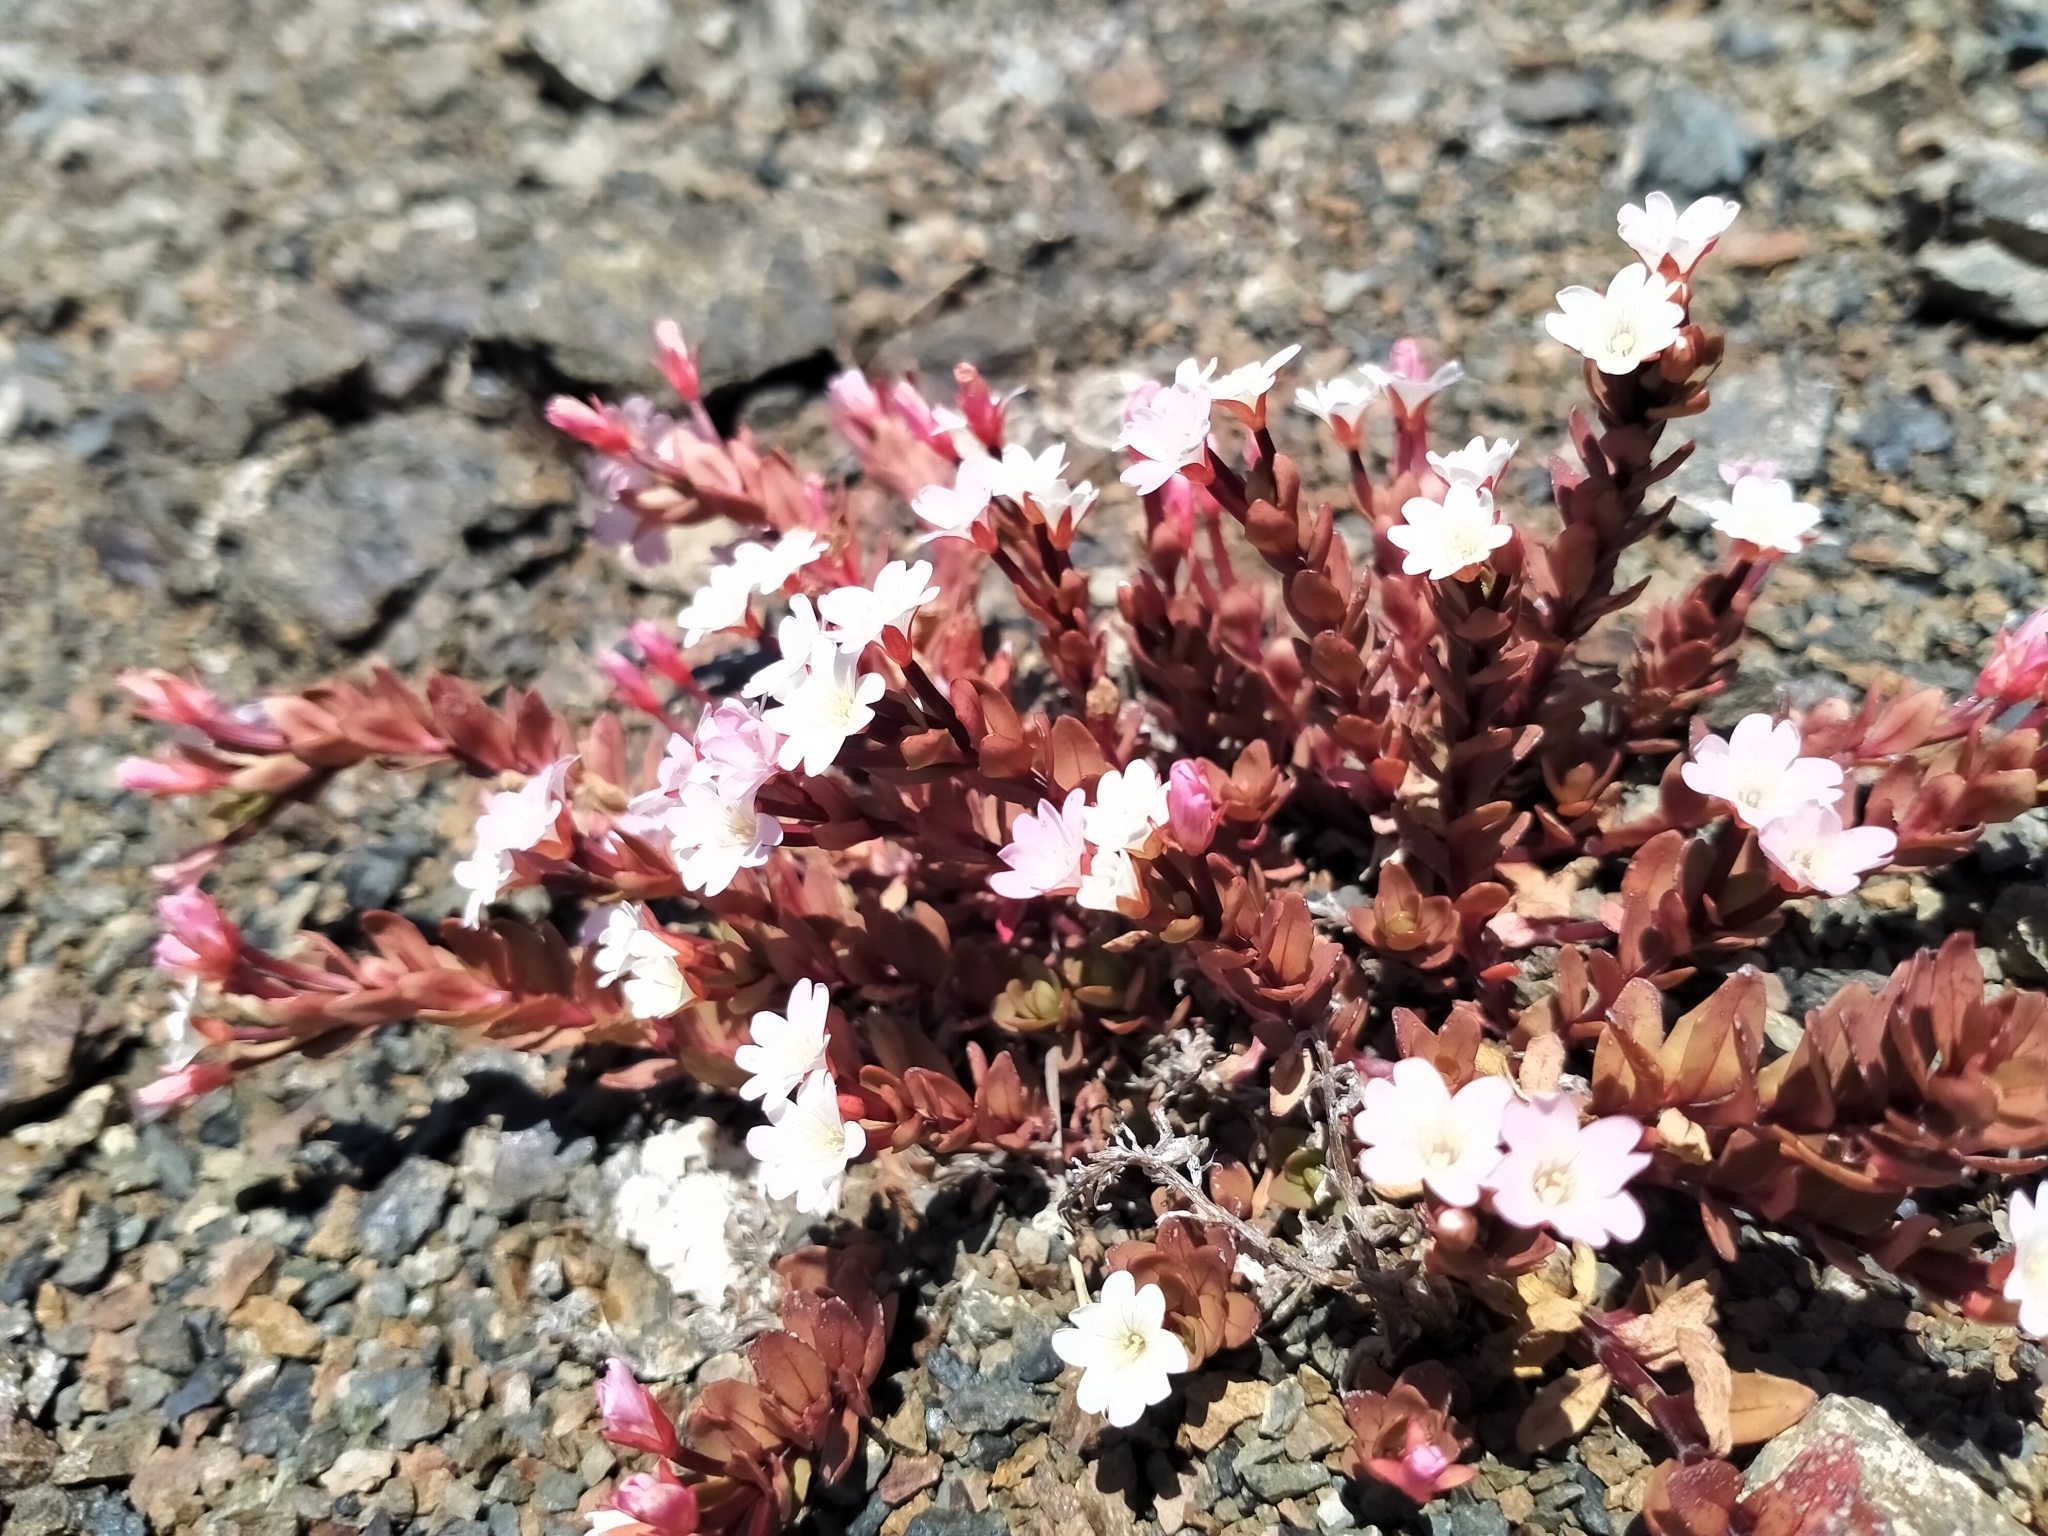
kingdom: Plantae
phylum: Tracheophyta
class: Magnoliopsida
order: Myrtales
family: Onagraceae
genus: Epilobium
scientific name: Epilobium porphyrium
